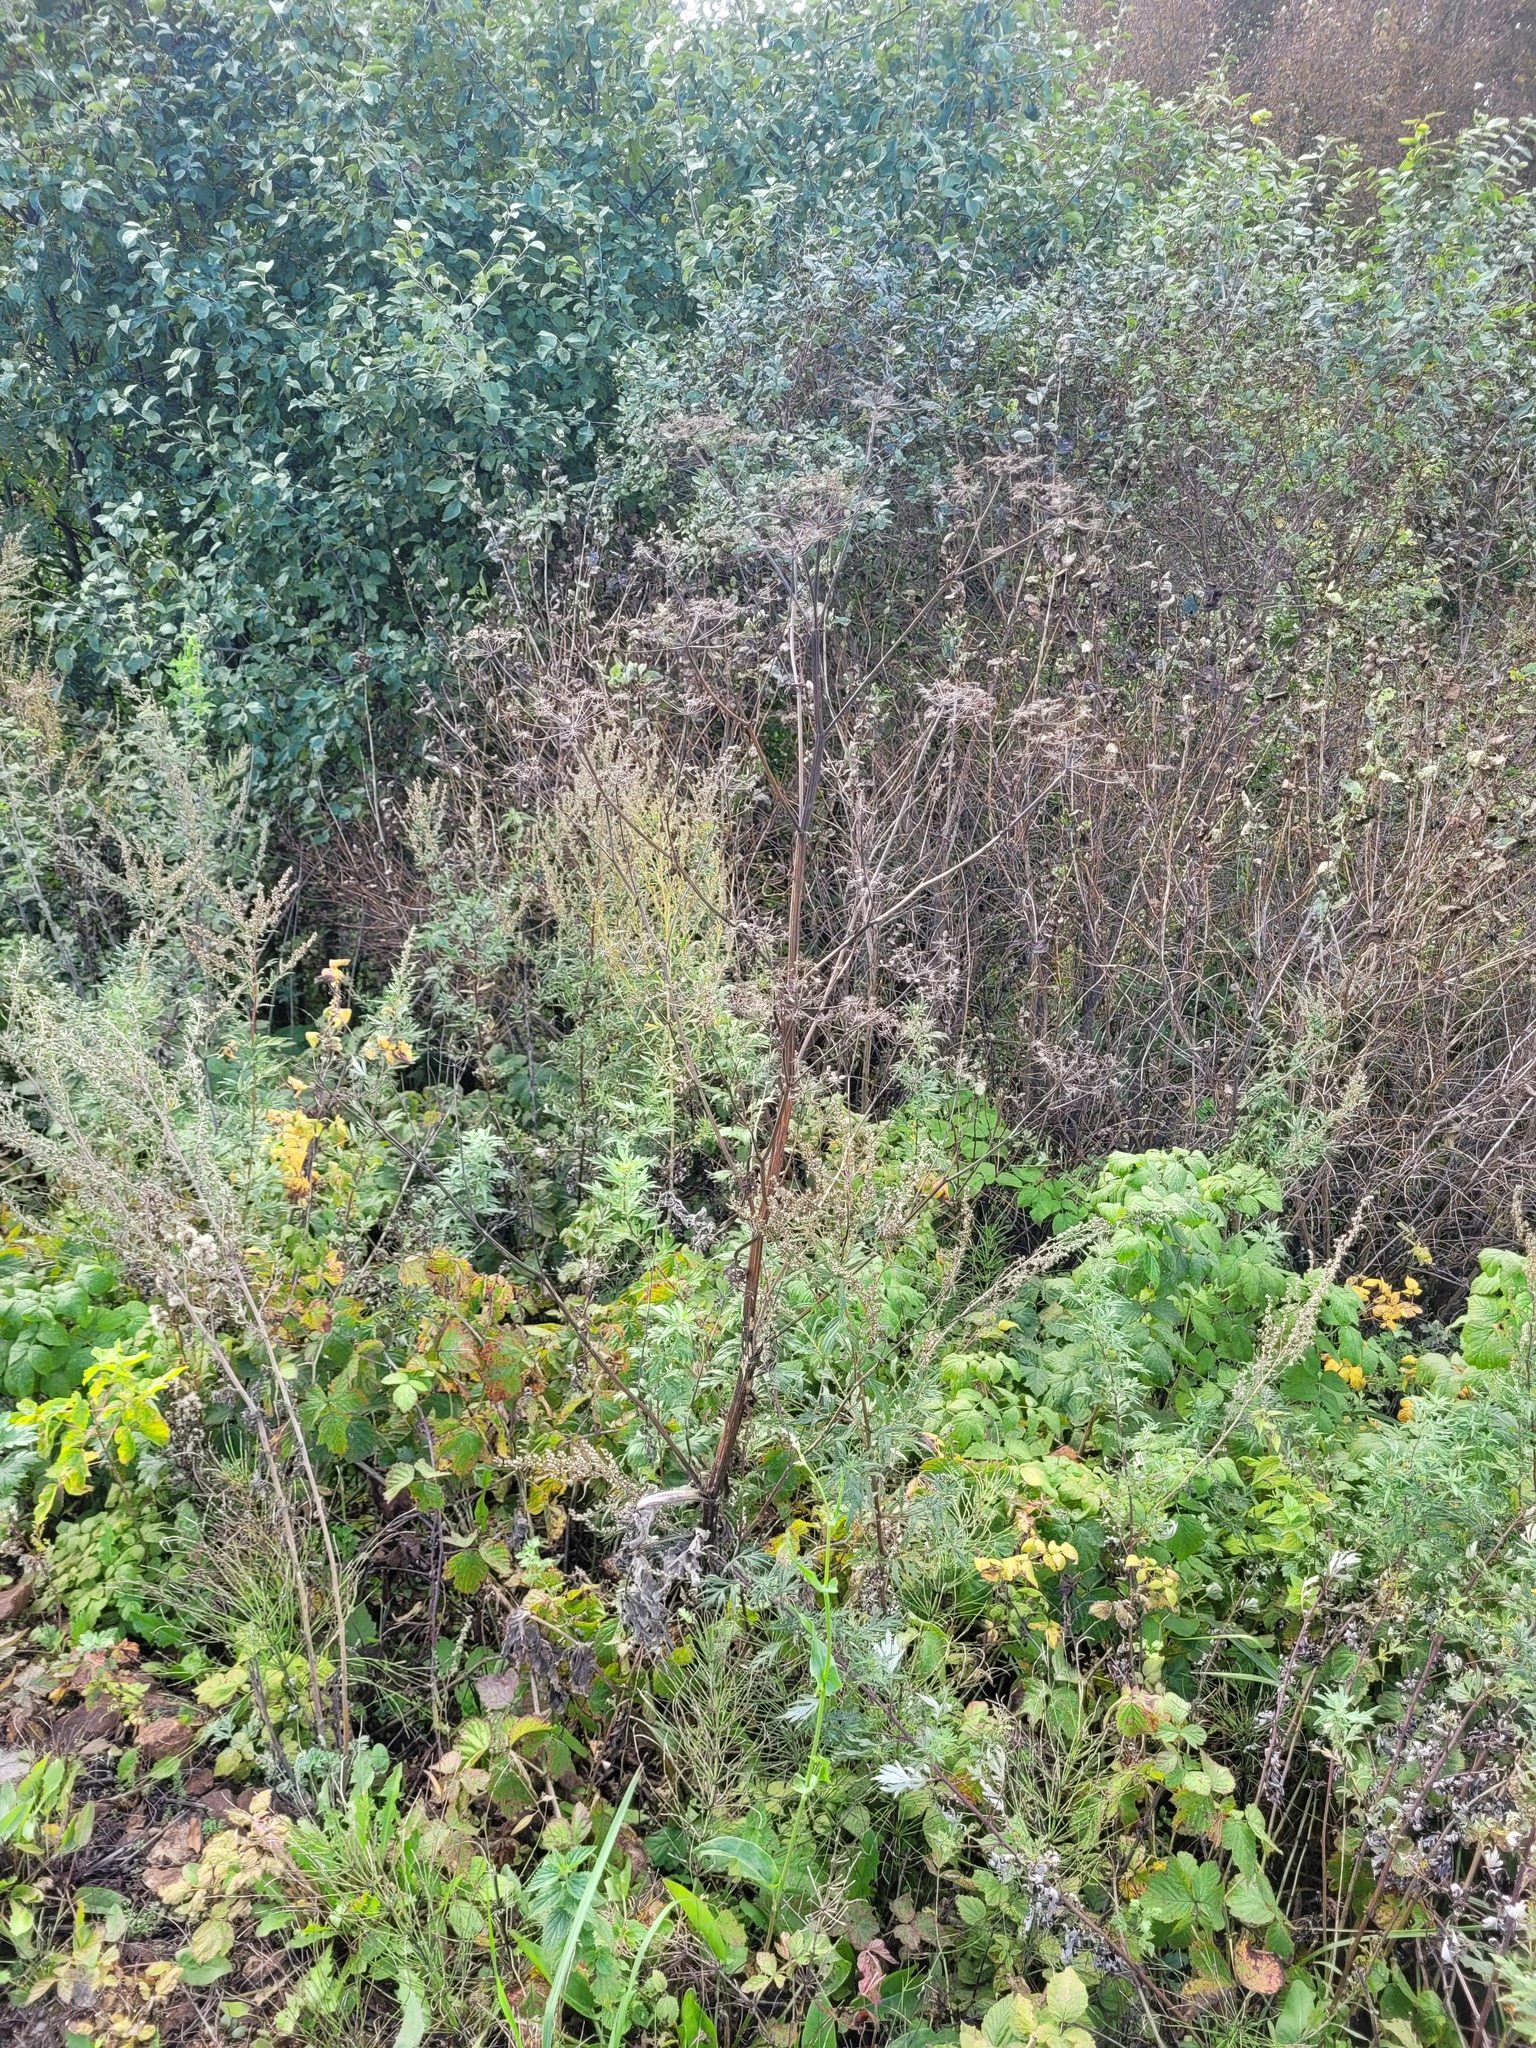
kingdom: Plantae
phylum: Tracheophyta
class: Magnoliopsida
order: Apiales
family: Apiaceae
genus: Pastinaca
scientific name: Pastinaca sativa
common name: Wild parsnip
